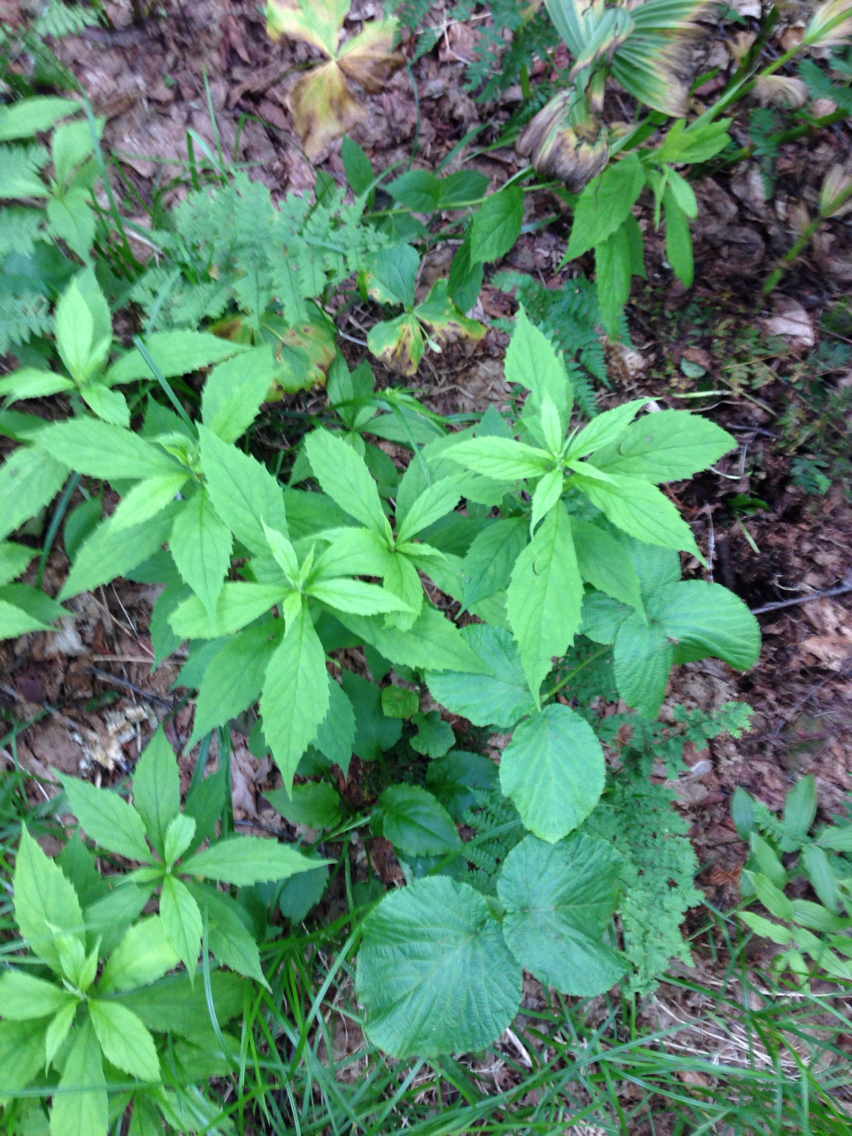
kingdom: Plantae
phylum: Tracheophyta
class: Magnoliopsida
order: Asterales
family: Asteraceae
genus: Oclemena
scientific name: Oclemena acuminata
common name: Mountain aster
